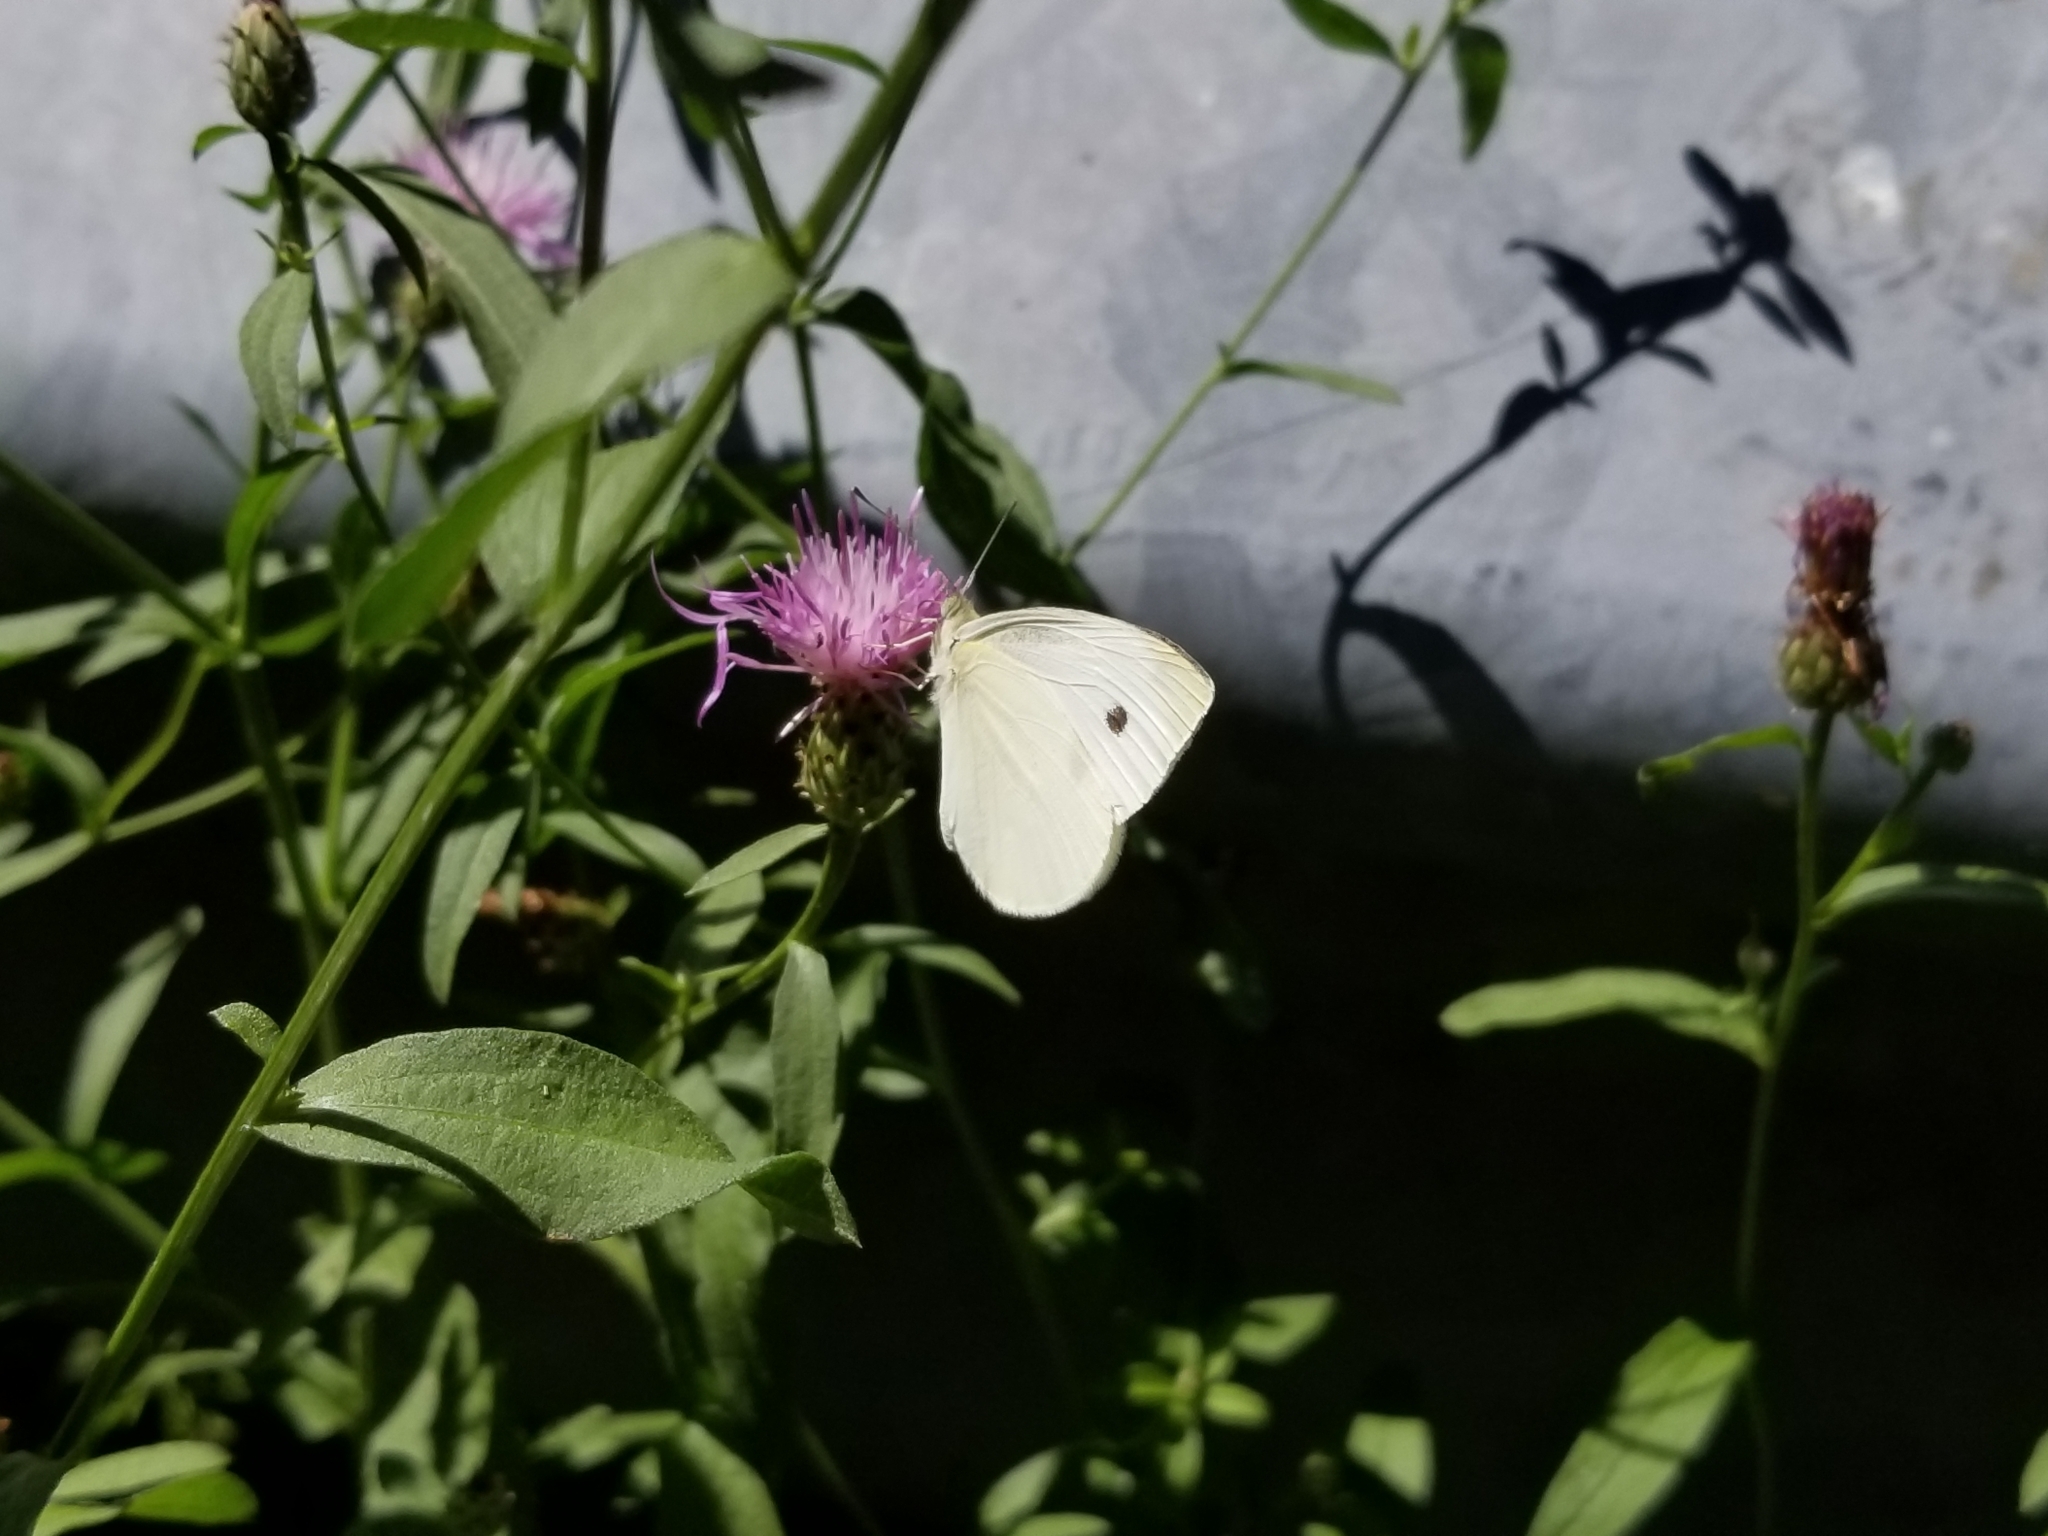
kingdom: Animalia
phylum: Arthropoda
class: Insecta
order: Lepidoptera
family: Pieridae
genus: Pieris
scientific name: Pieris rapae
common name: Small white
